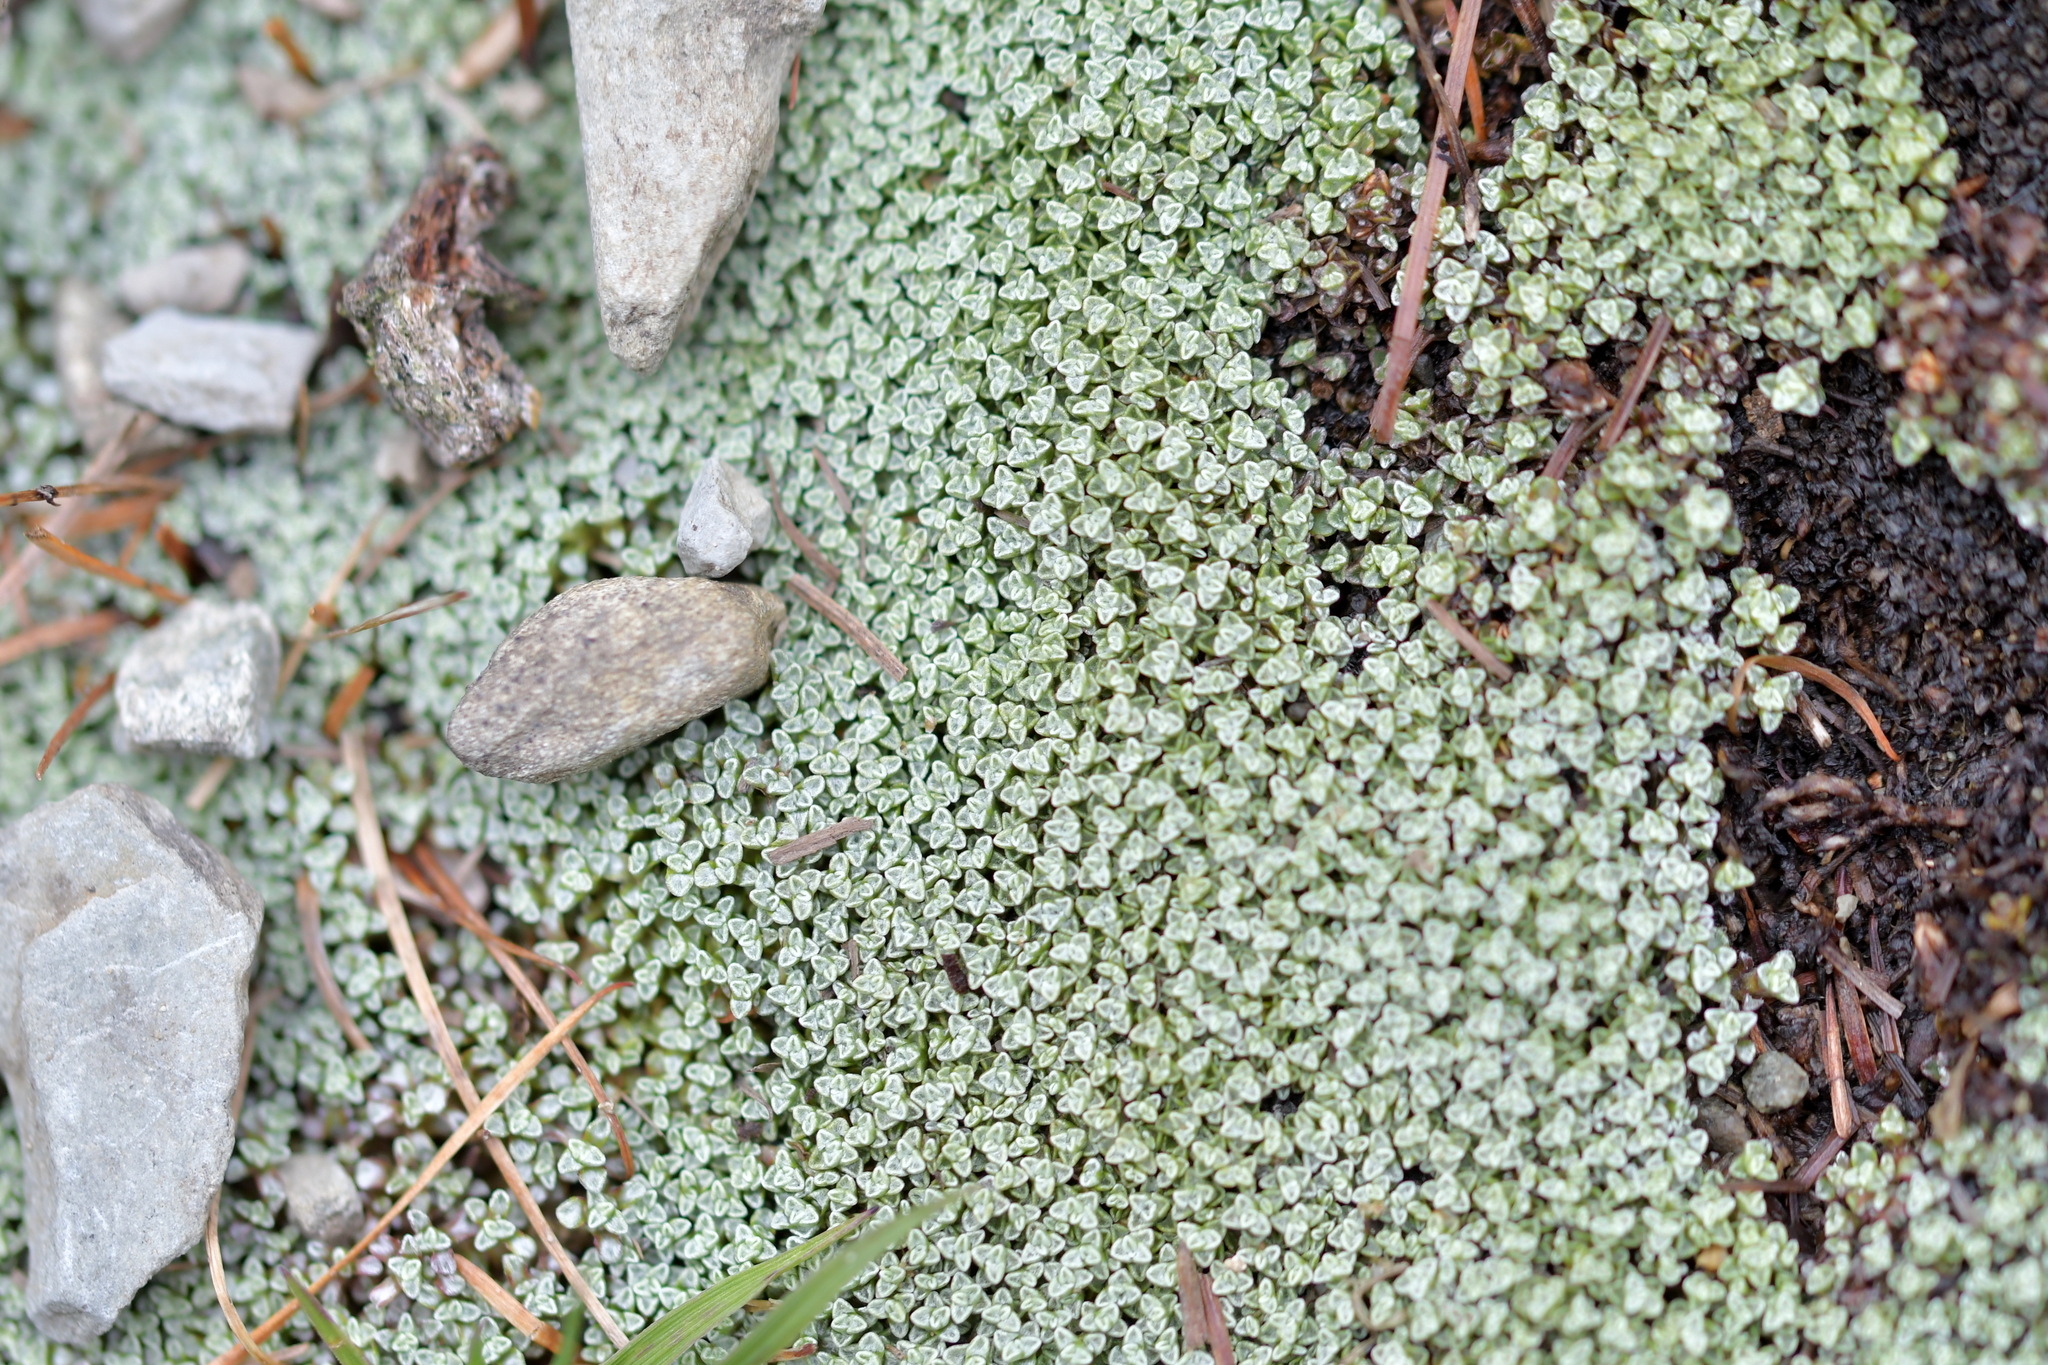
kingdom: Plantae
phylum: Tracheophyta
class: Magnoliopsida
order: Asterales
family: Asteraceae
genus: Raoulia
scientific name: Raoulia australis
